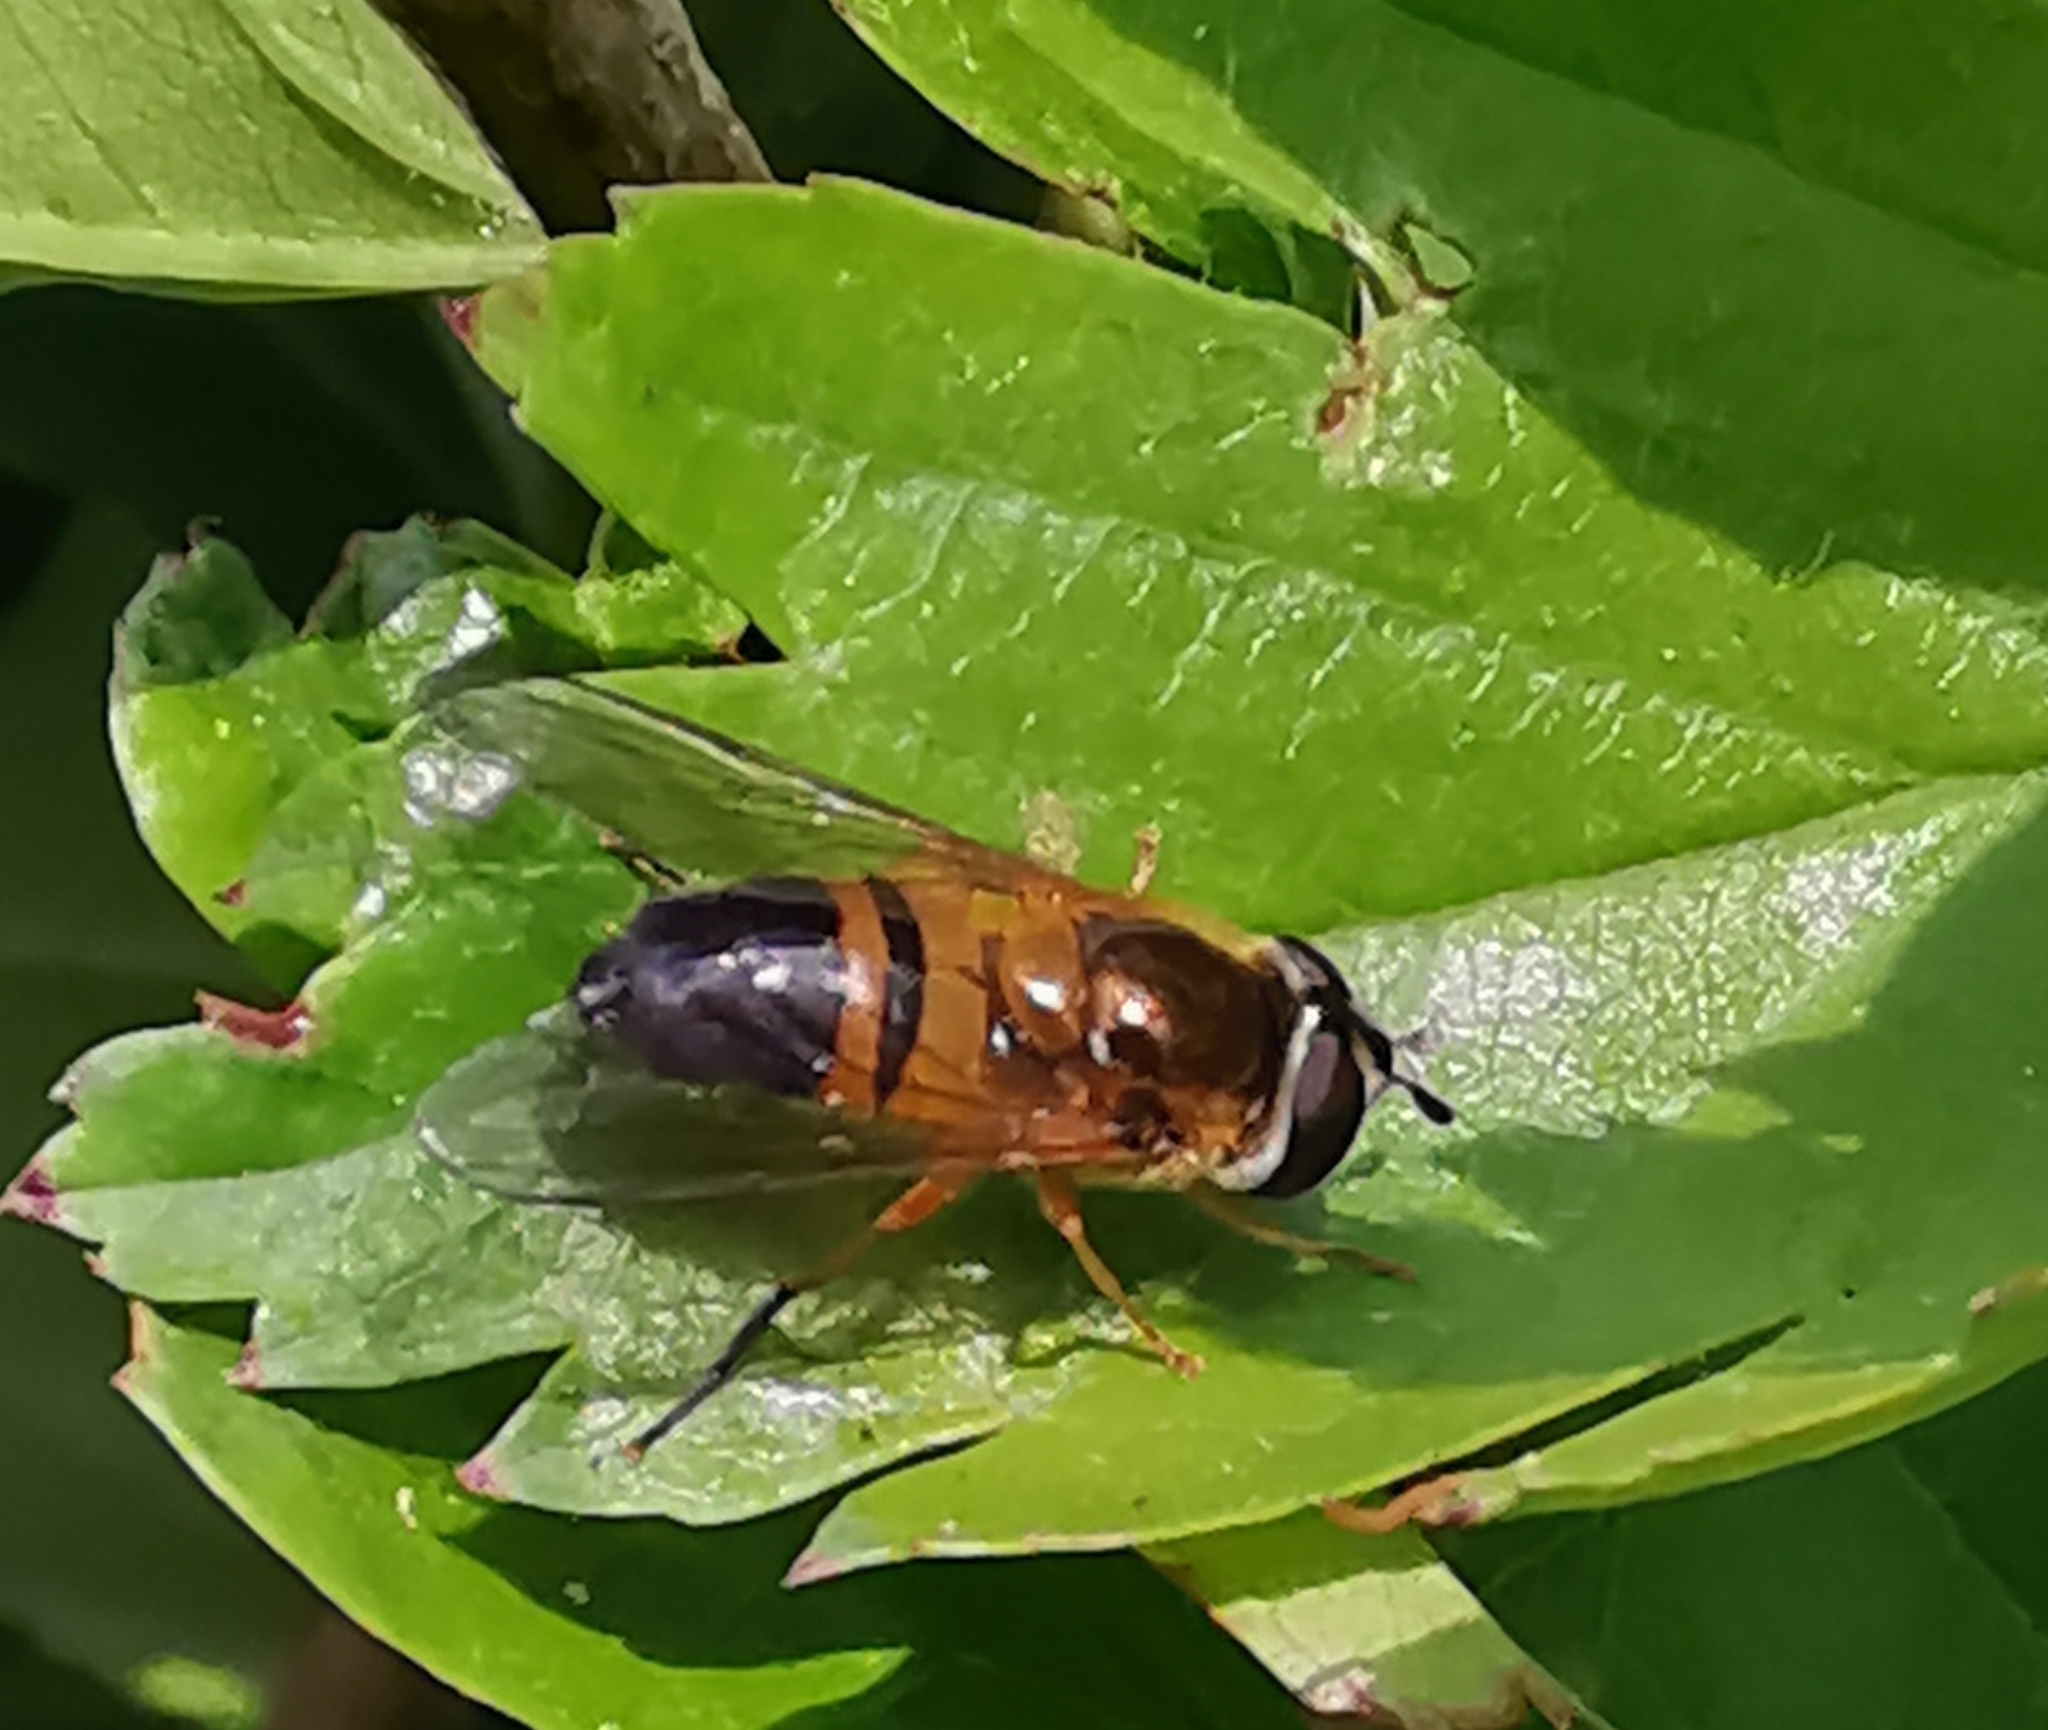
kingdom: Animalia
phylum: Arthropoda
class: Insecta
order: Diptera
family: Syrphidae
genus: Epistrophe
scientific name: Epistrophe eligans
